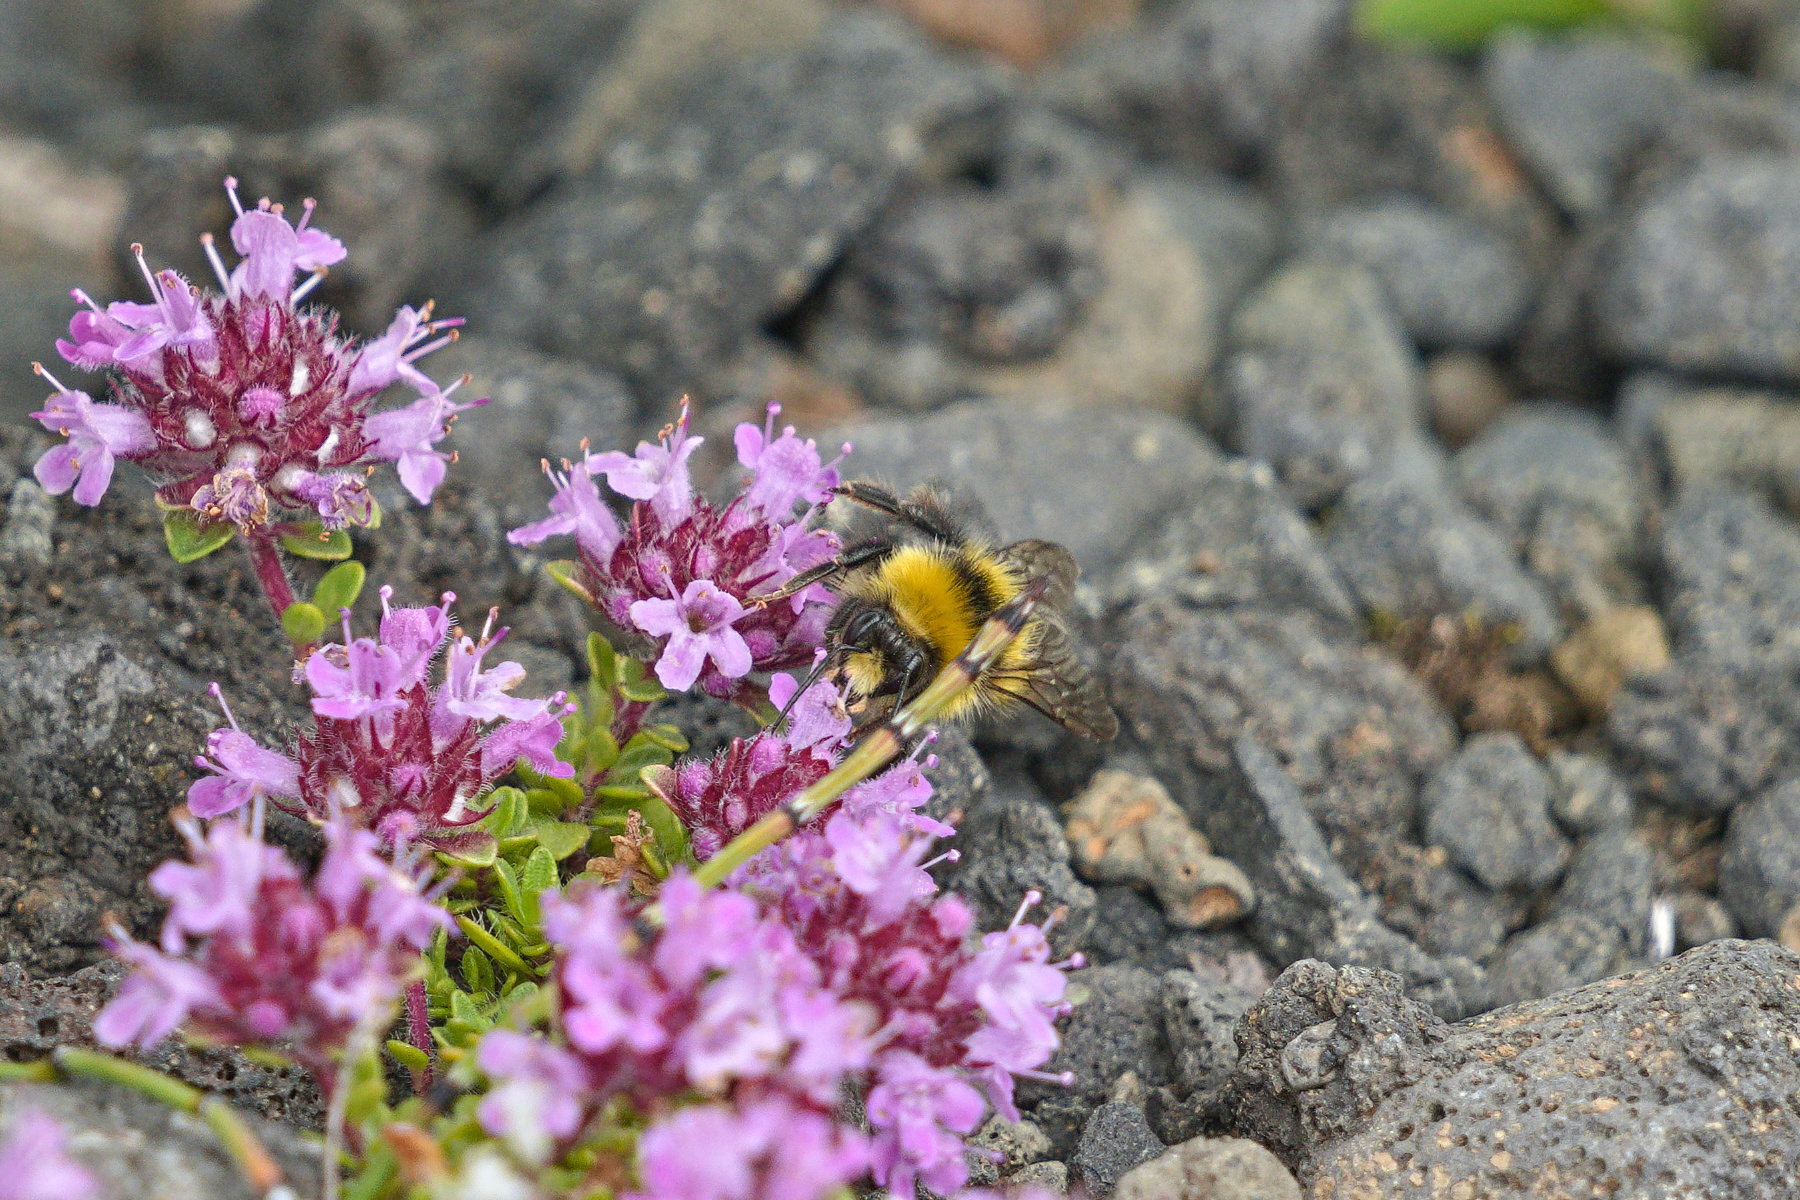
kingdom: Animalia
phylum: Arthropoda
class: Insecta
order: Hymenoptera
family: Apidae
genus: Bombus
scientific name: Bombus jonellus
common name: Heath humble-bee
